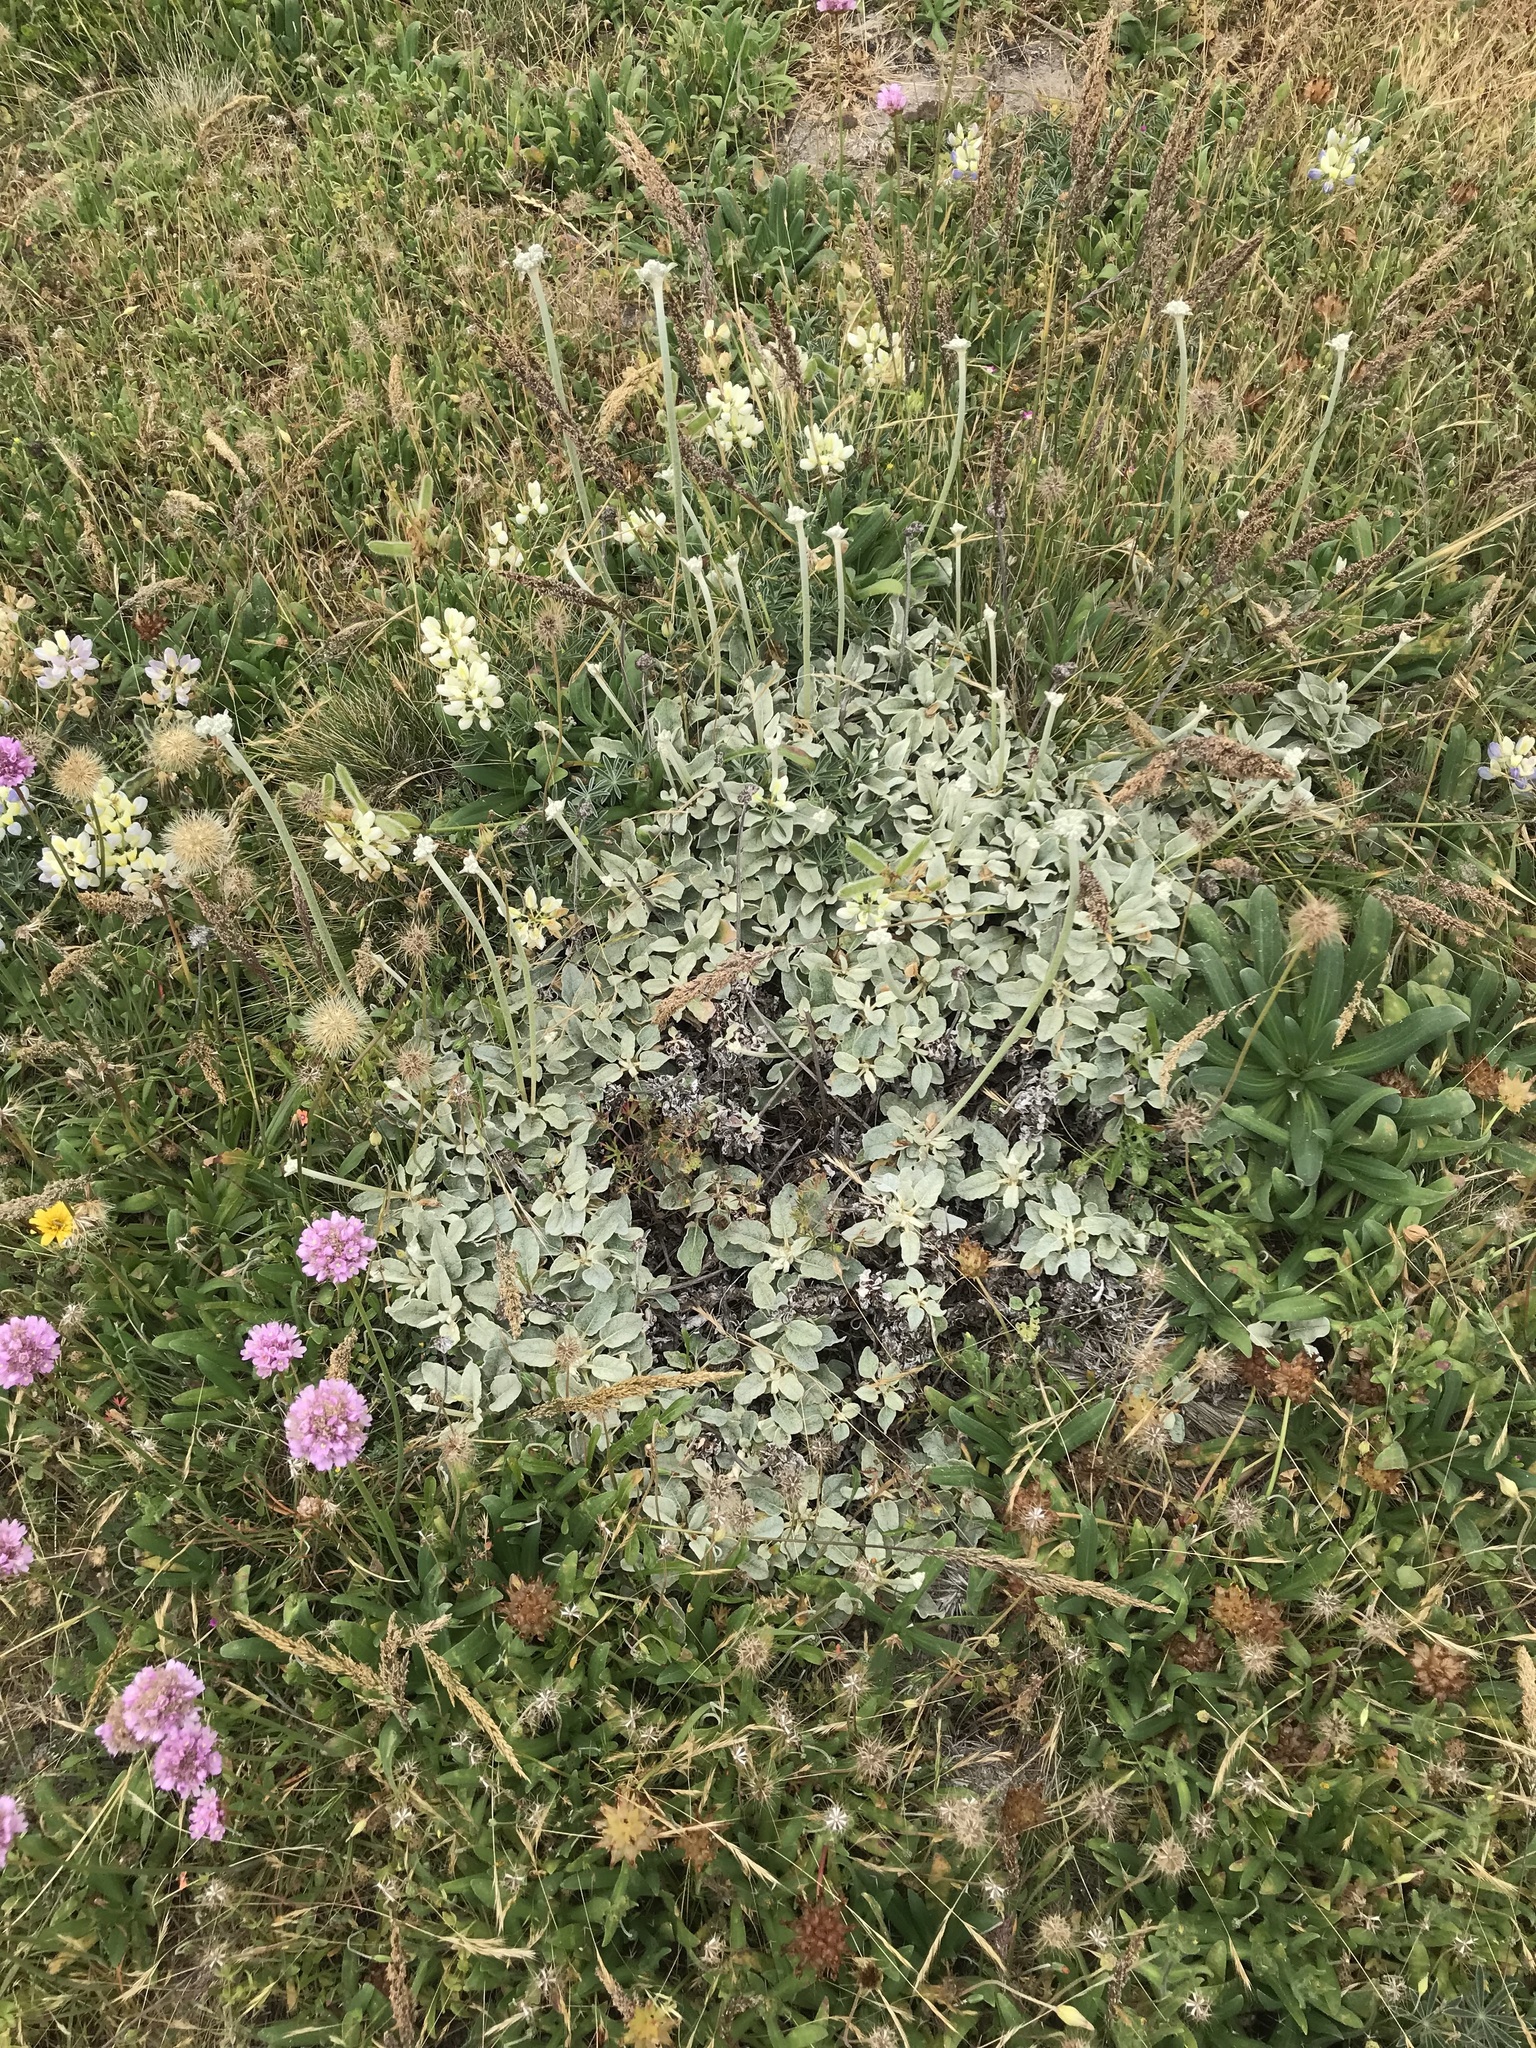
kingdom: Plantae
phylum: Tracheophyta
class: Magnoliopsida
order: Caryophyllales
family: Polygonaceae
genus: Eriogonum
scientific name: Eriogonum latifolium
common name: Seaside wild buckwheat
